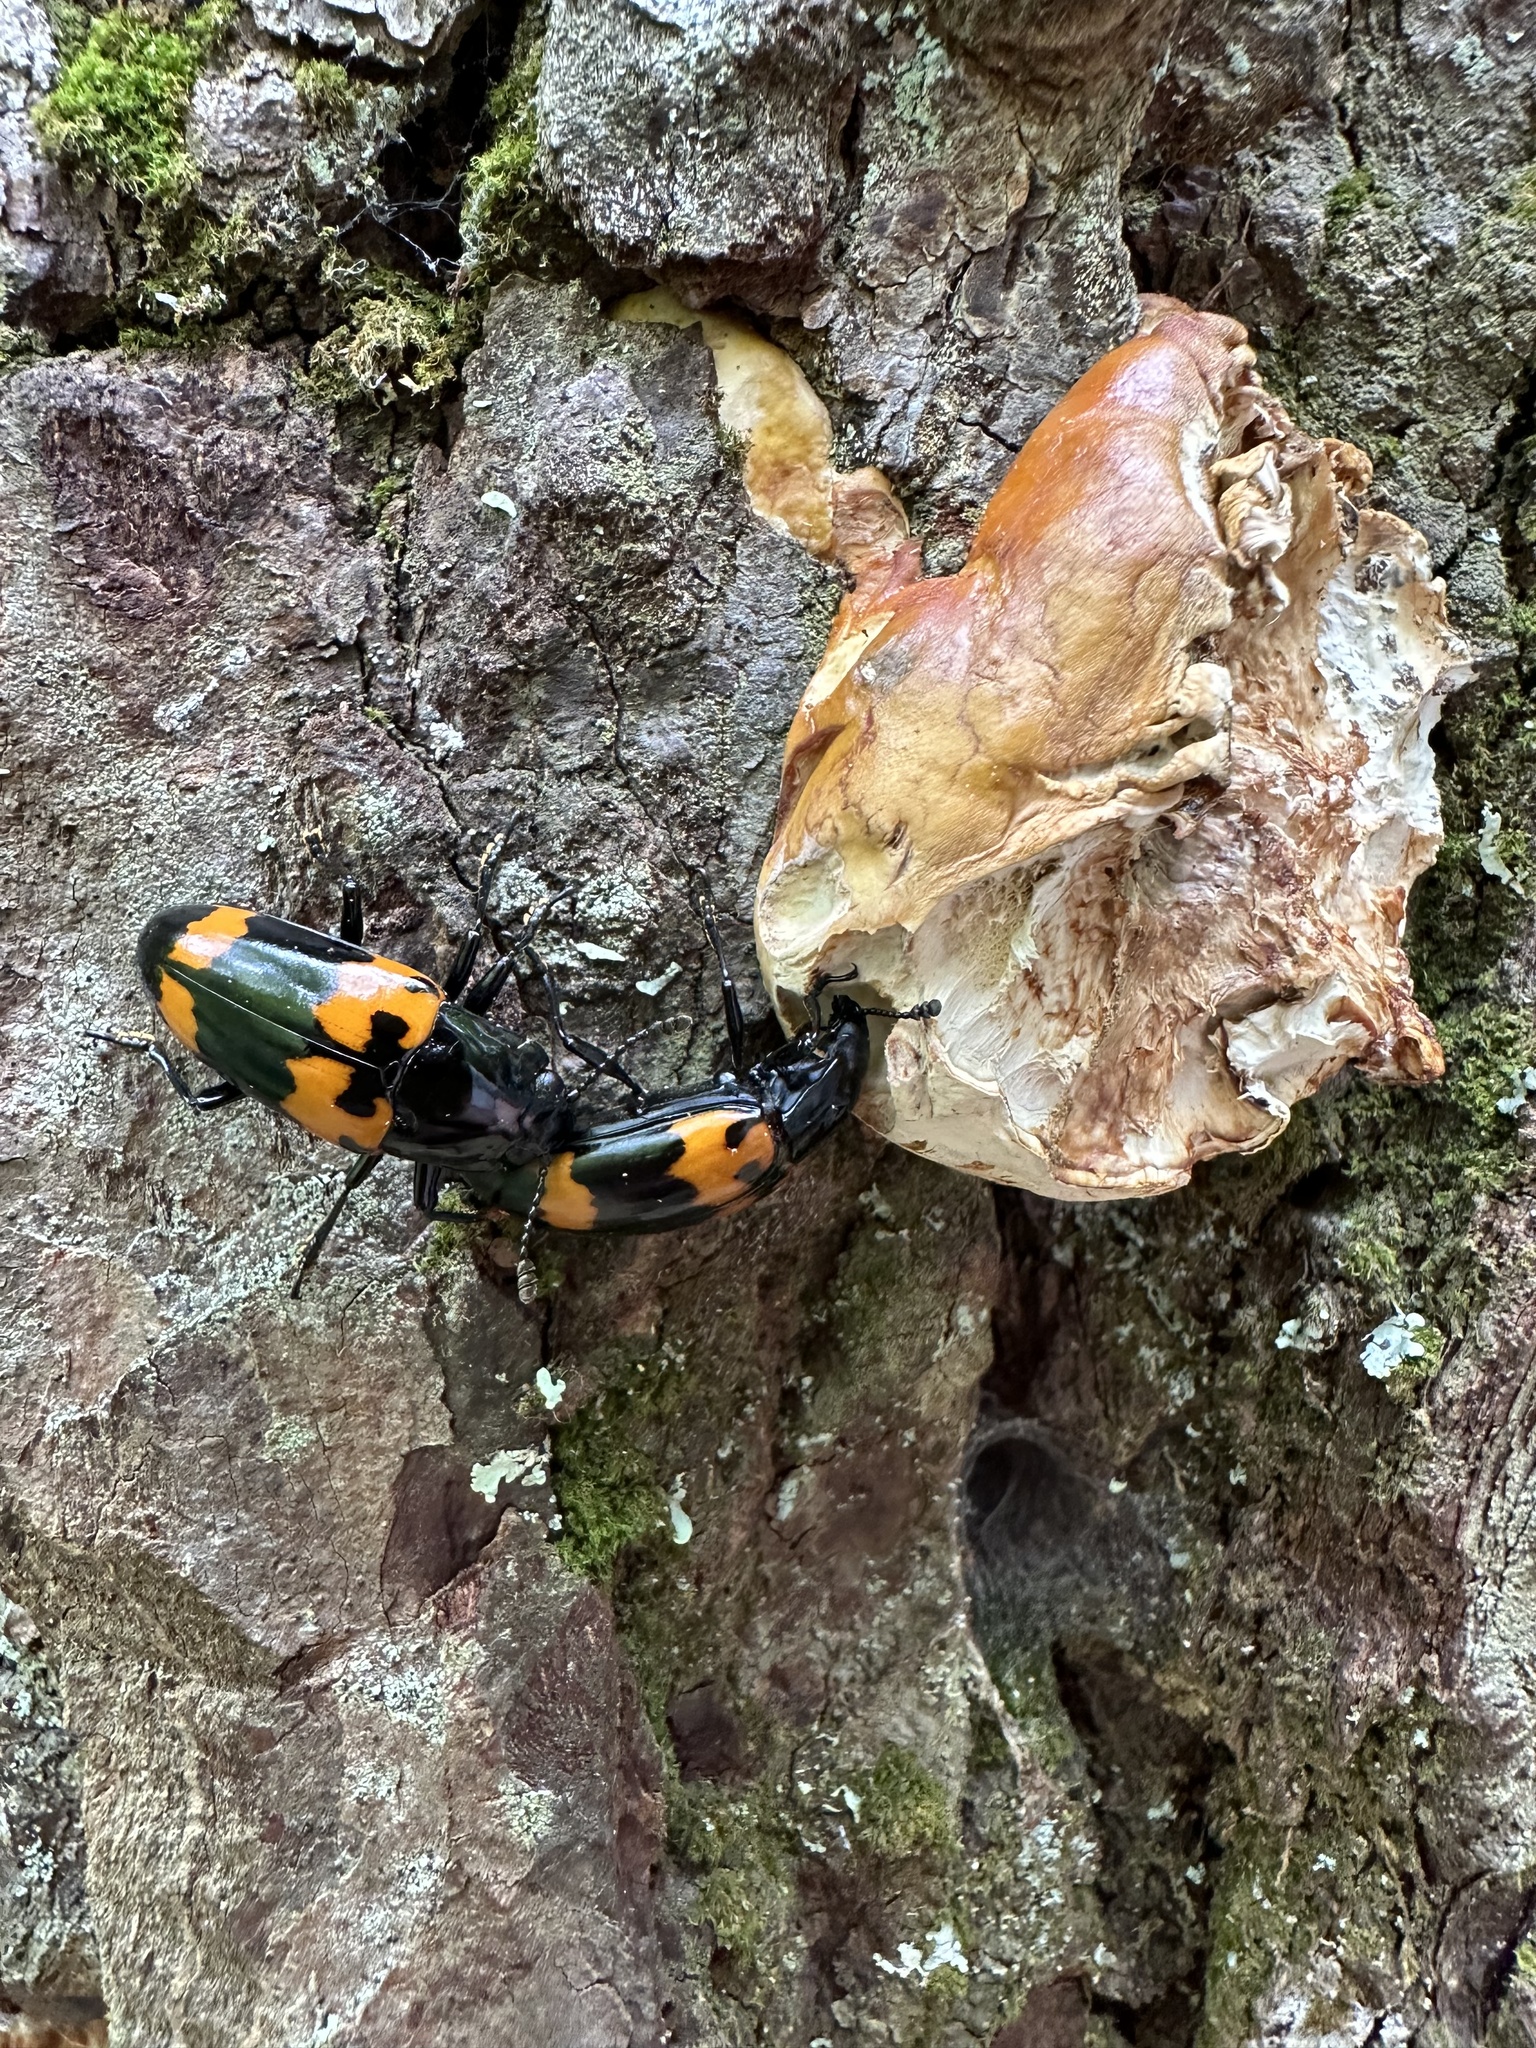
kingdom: Animalia
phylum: Arthropoda
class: Insecta
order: Coleoptera
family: Erotylidae
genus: Megalodacne
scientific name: Megalodacne heros
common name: Pleasing fungus beetle
